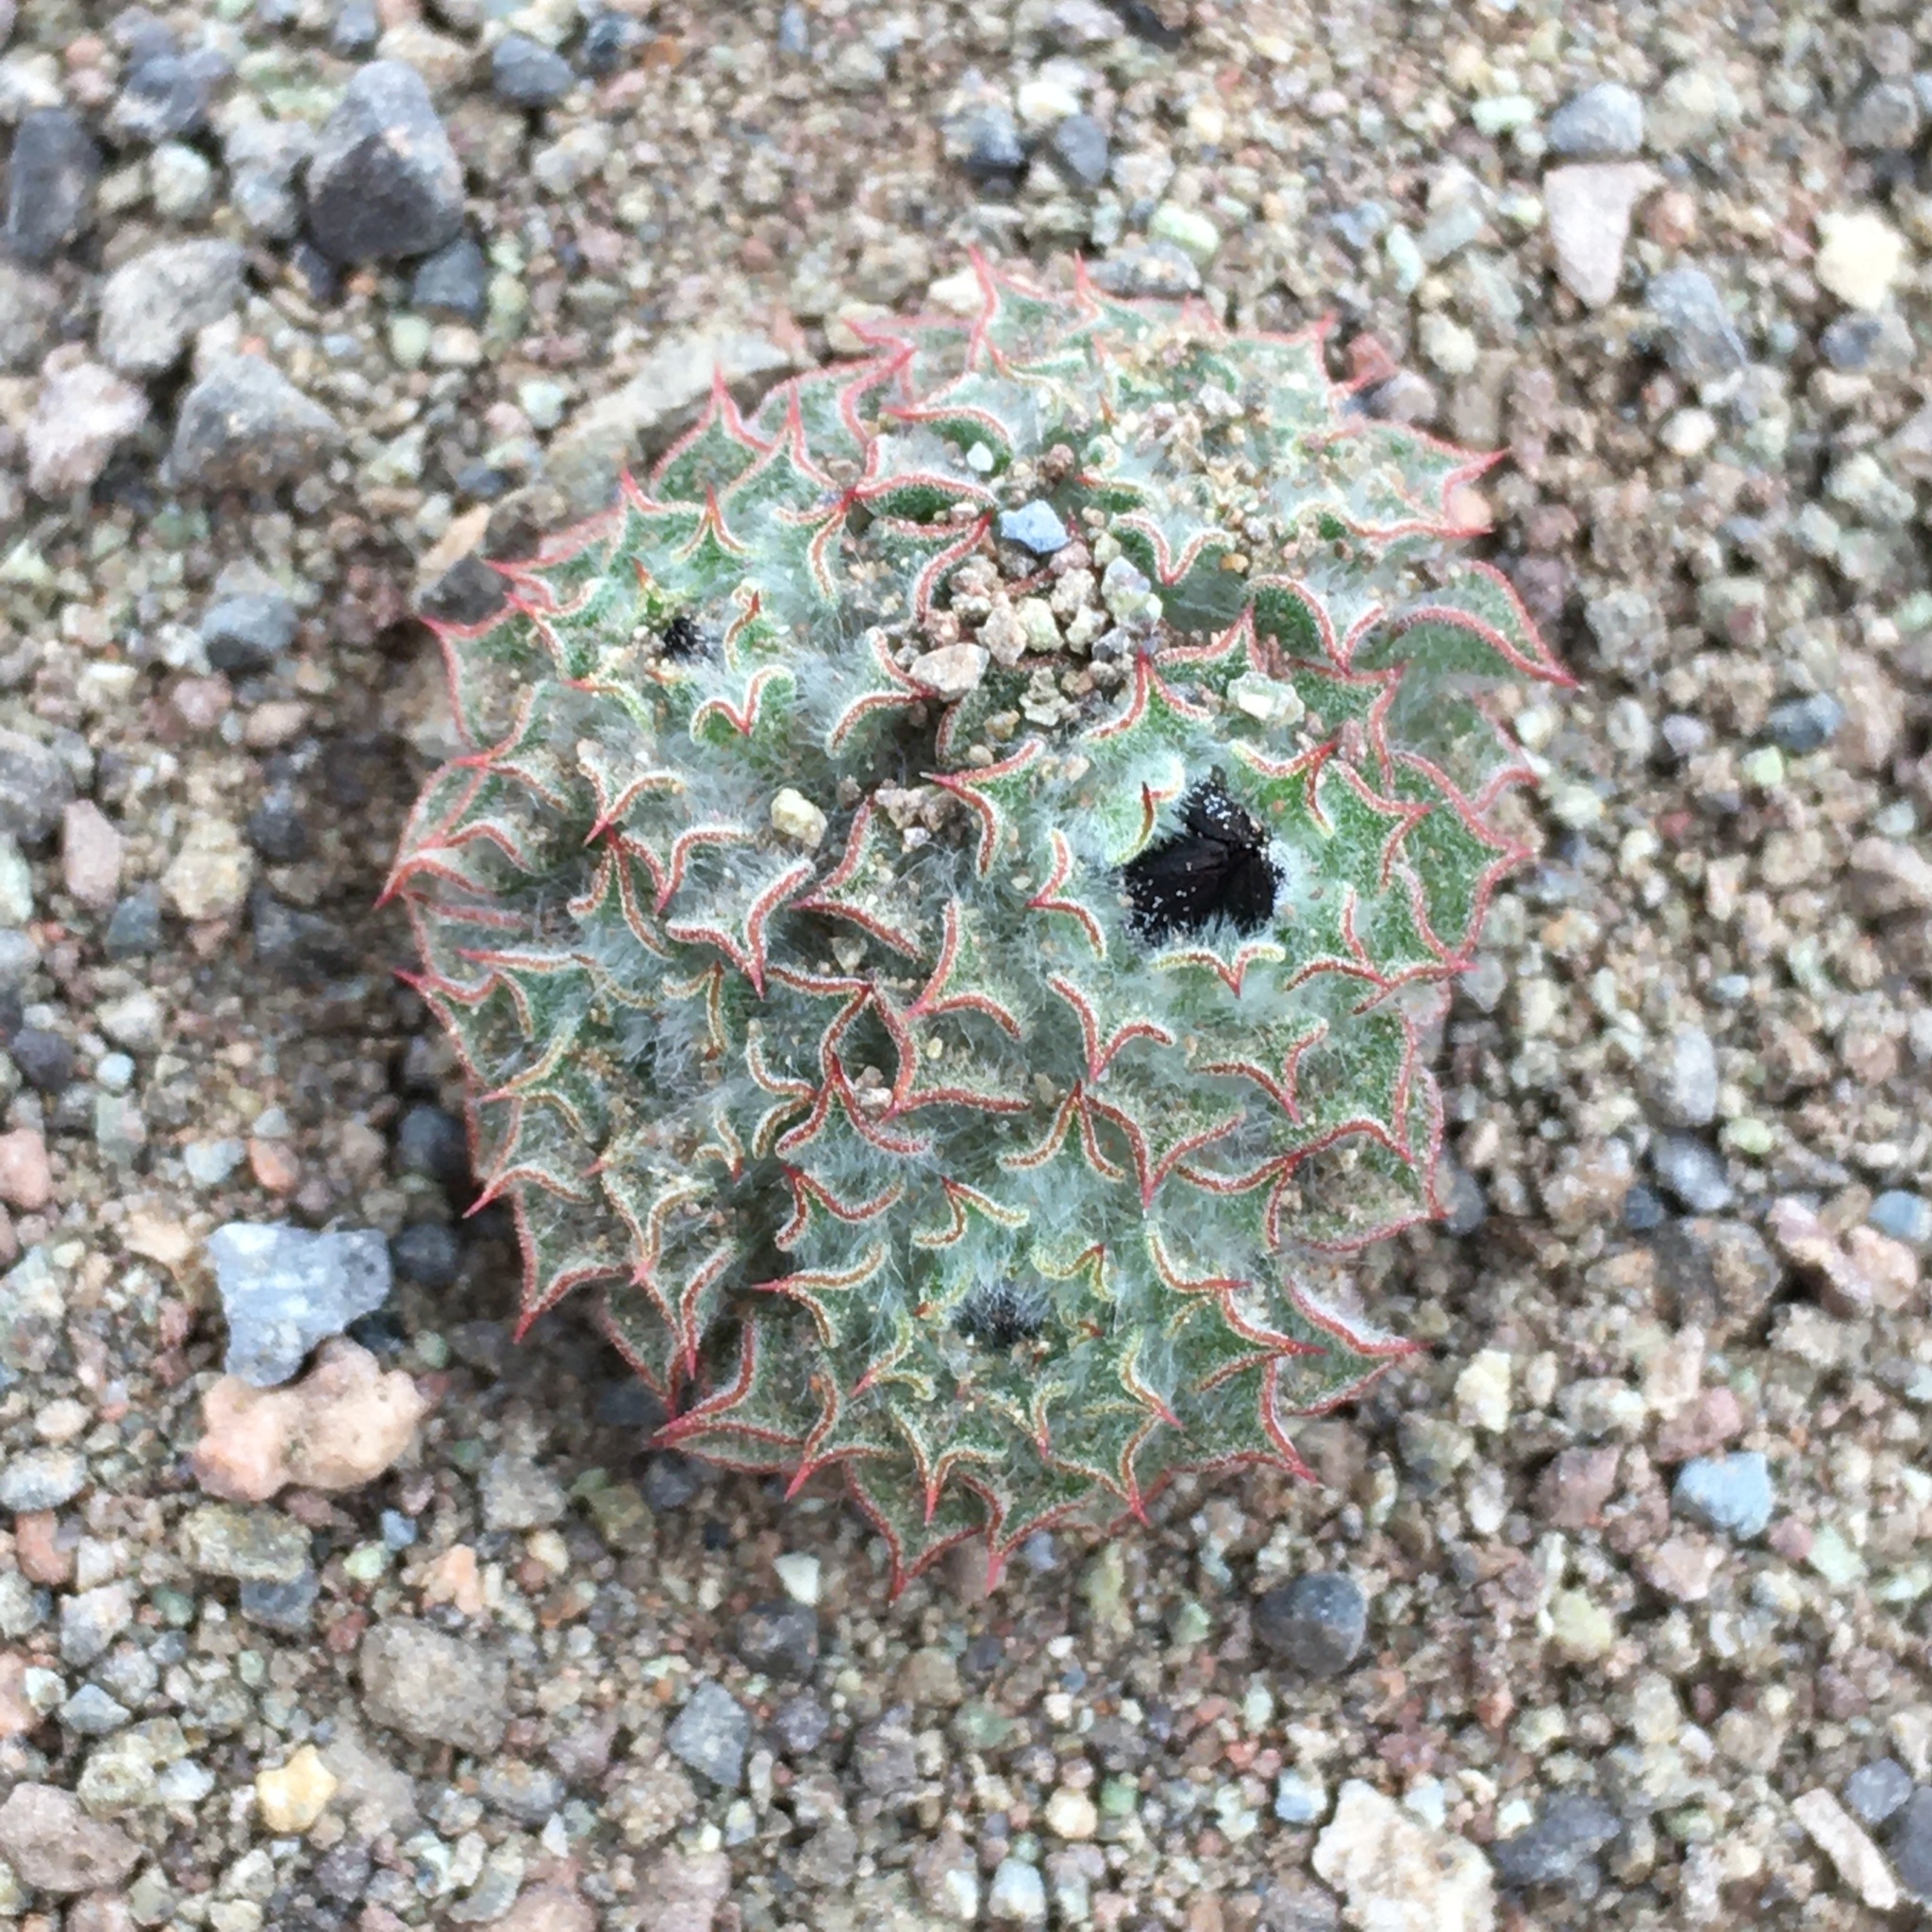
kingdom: Plantae
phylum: Tracheophyta
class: Magnoliopsida
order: Asterales
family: Asteraceae
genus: Oriastrum
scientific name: Oriastrum chilense
